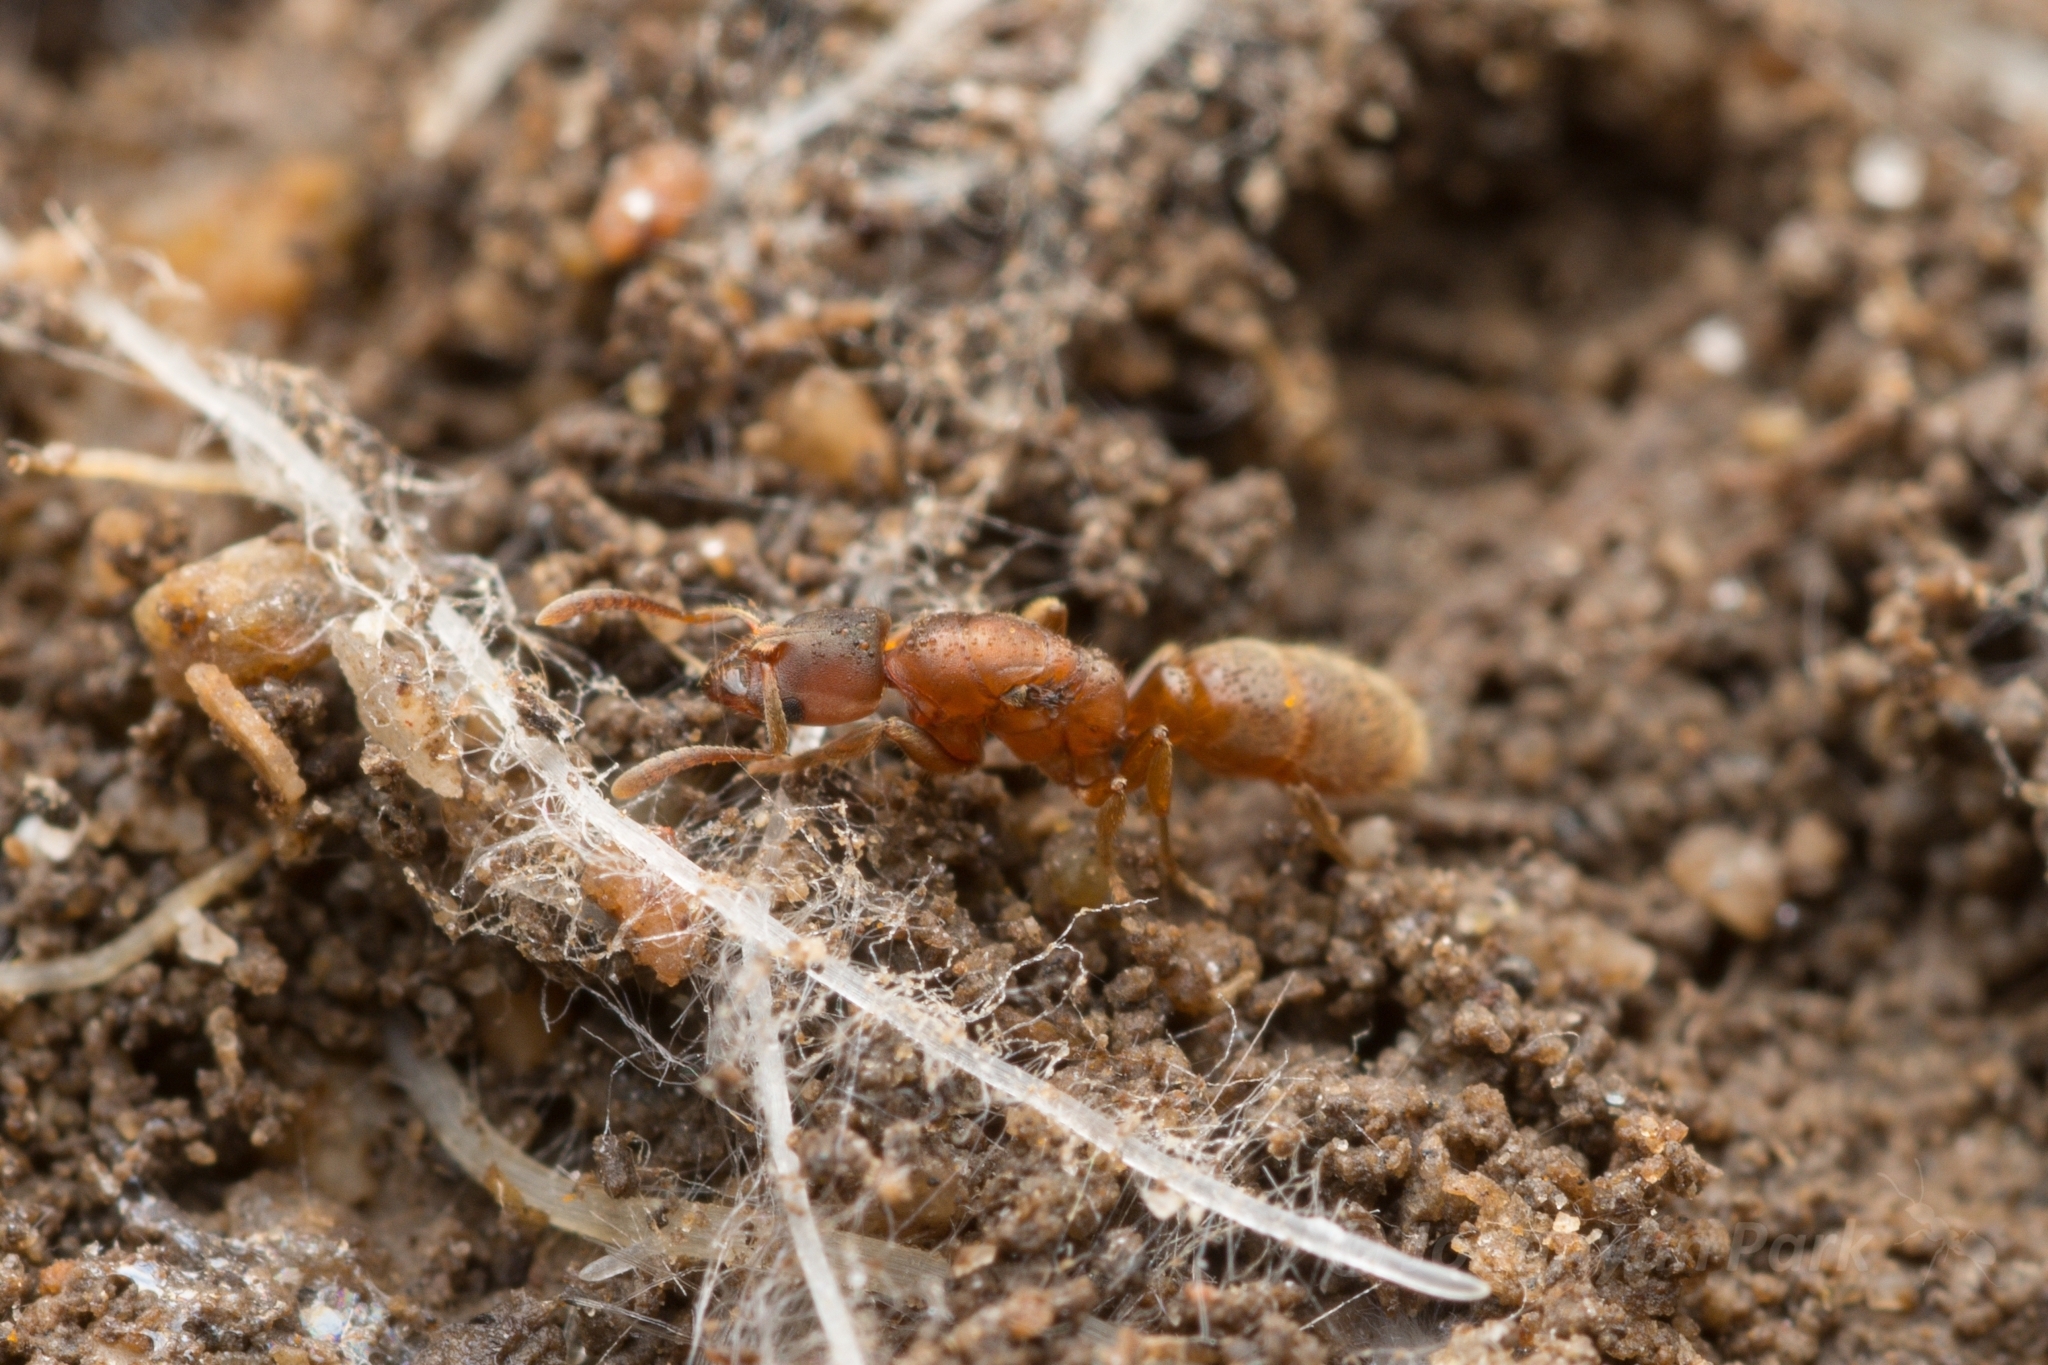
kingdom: Animalia
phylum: Arthropoda
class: Insecta
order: Hymenoptera
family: Formicidae
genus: Cryptopone
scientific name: Cryptopone sauteri
